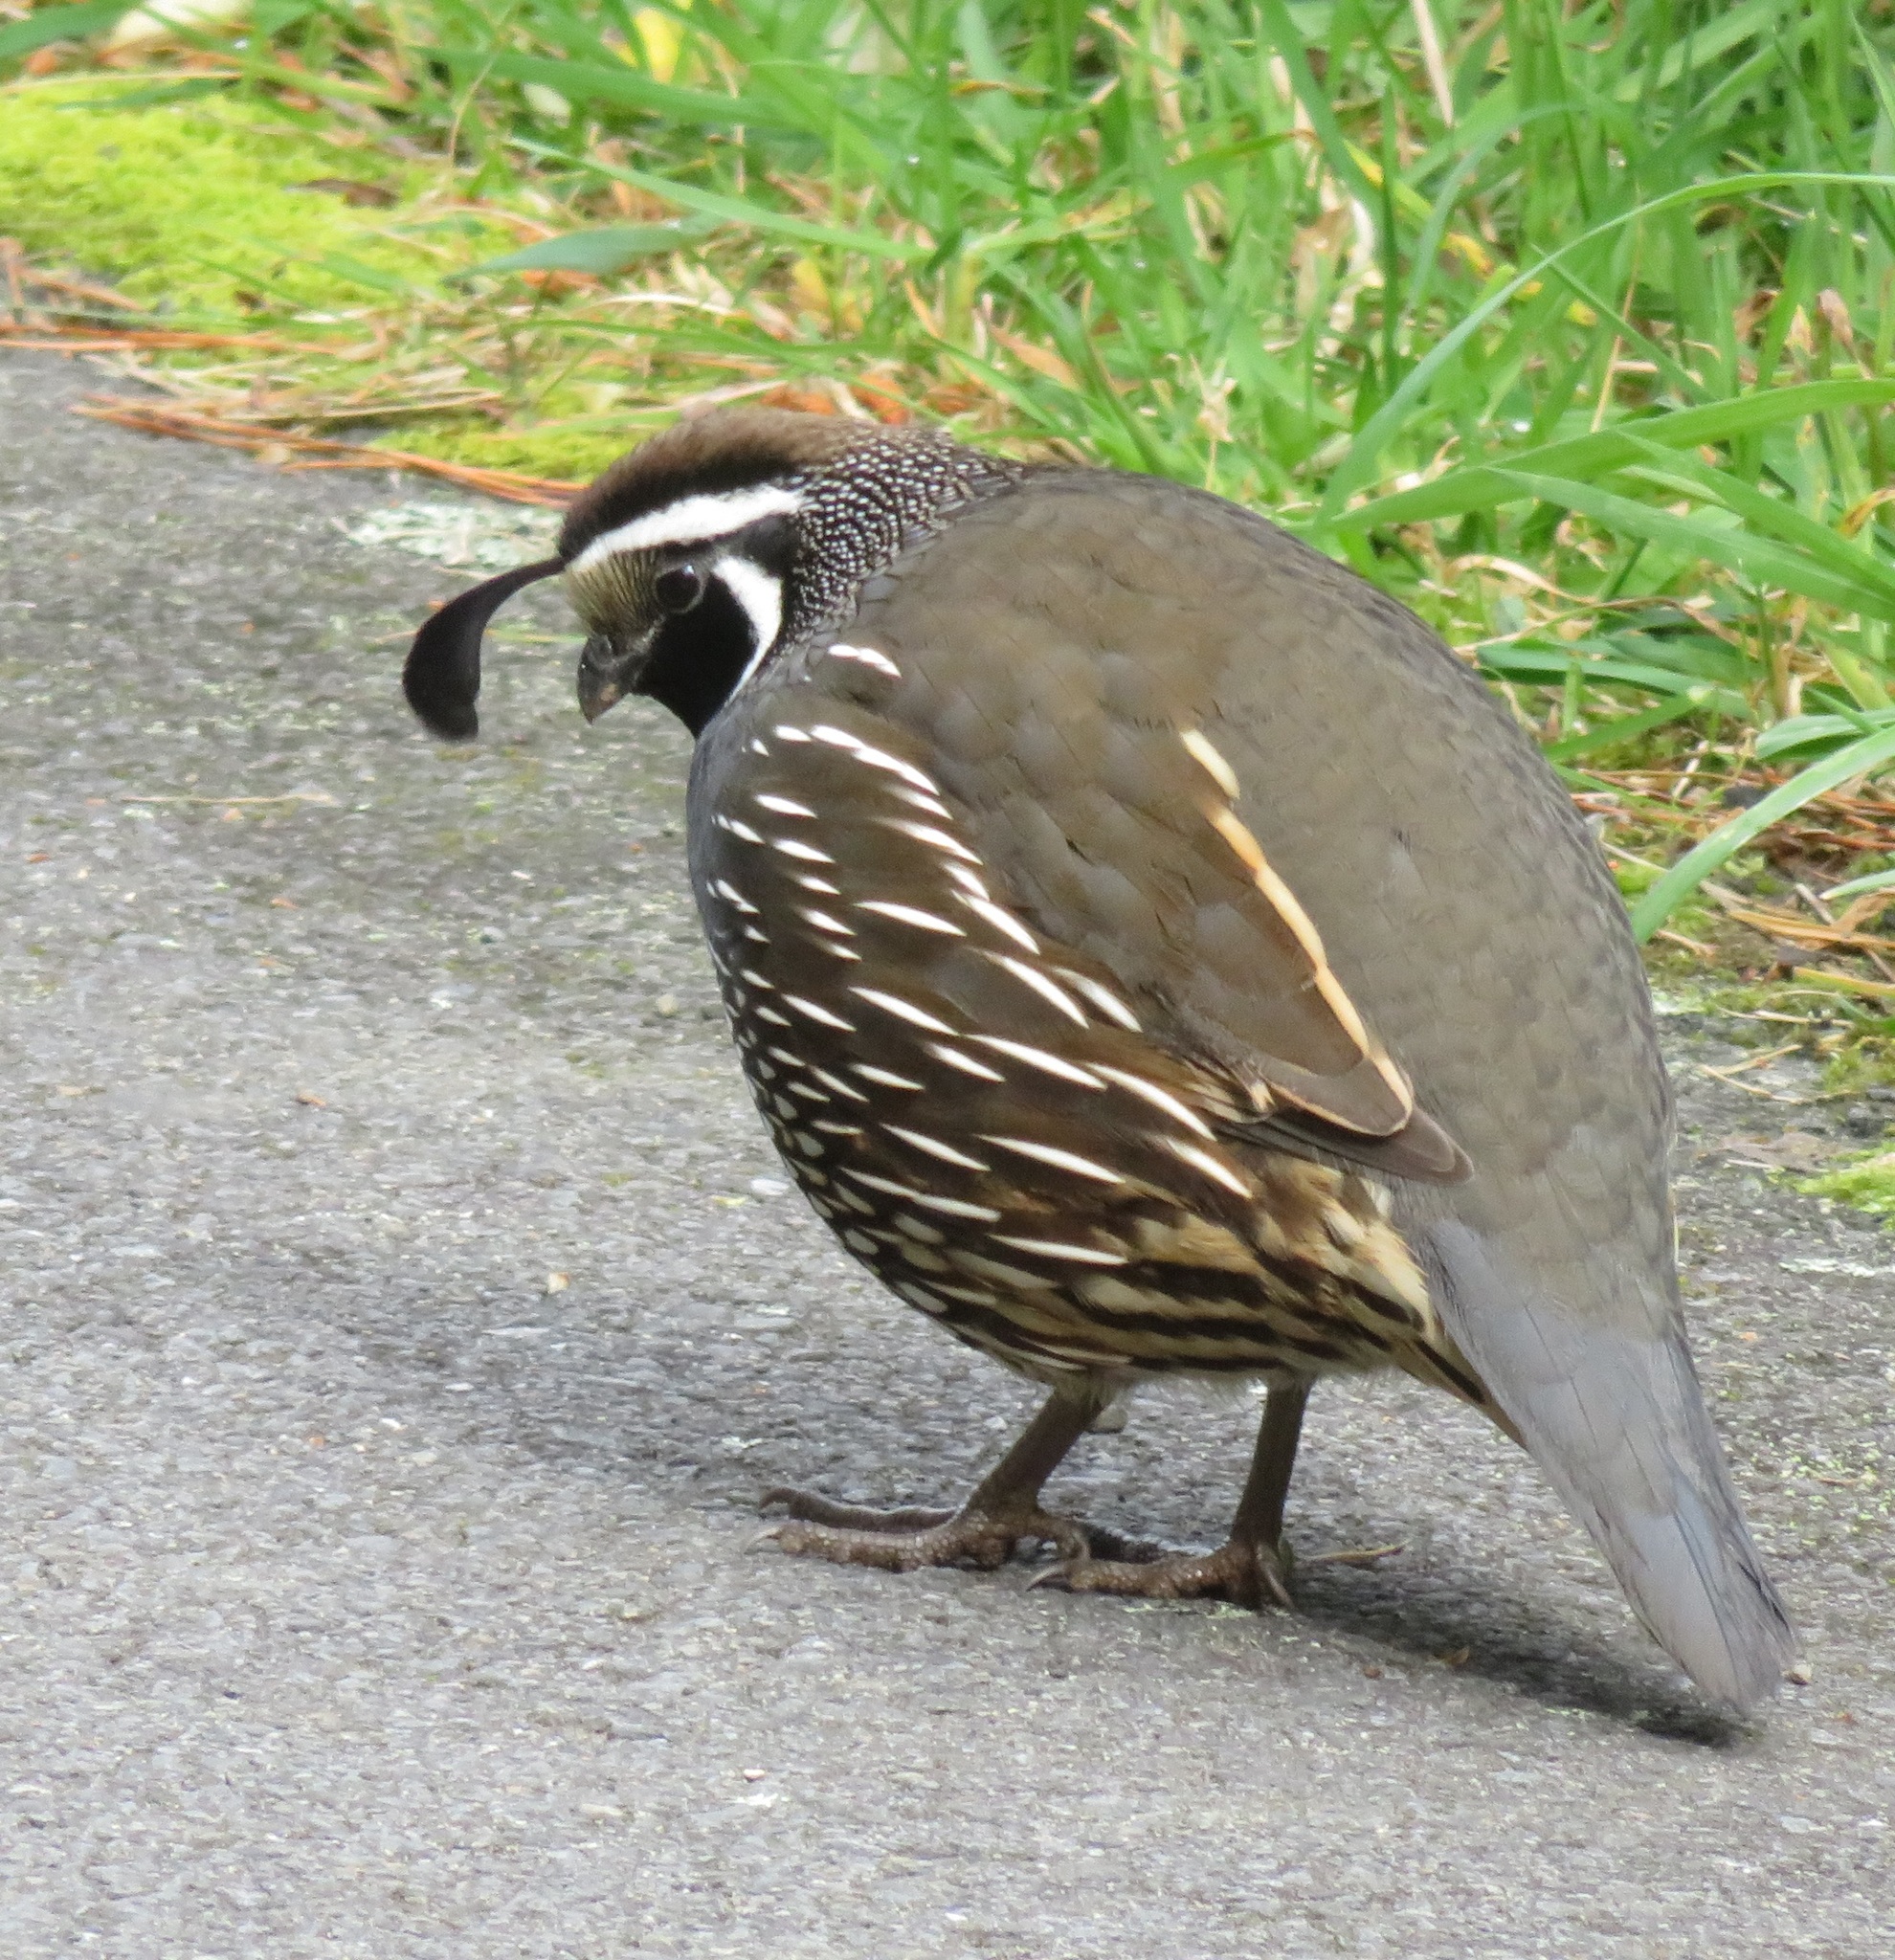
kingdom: Animalia
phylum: Chordata
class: Aves
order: Galliformes
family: Odontophoridae
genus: Callipepla
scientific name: Callipepla californica
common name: California quail
